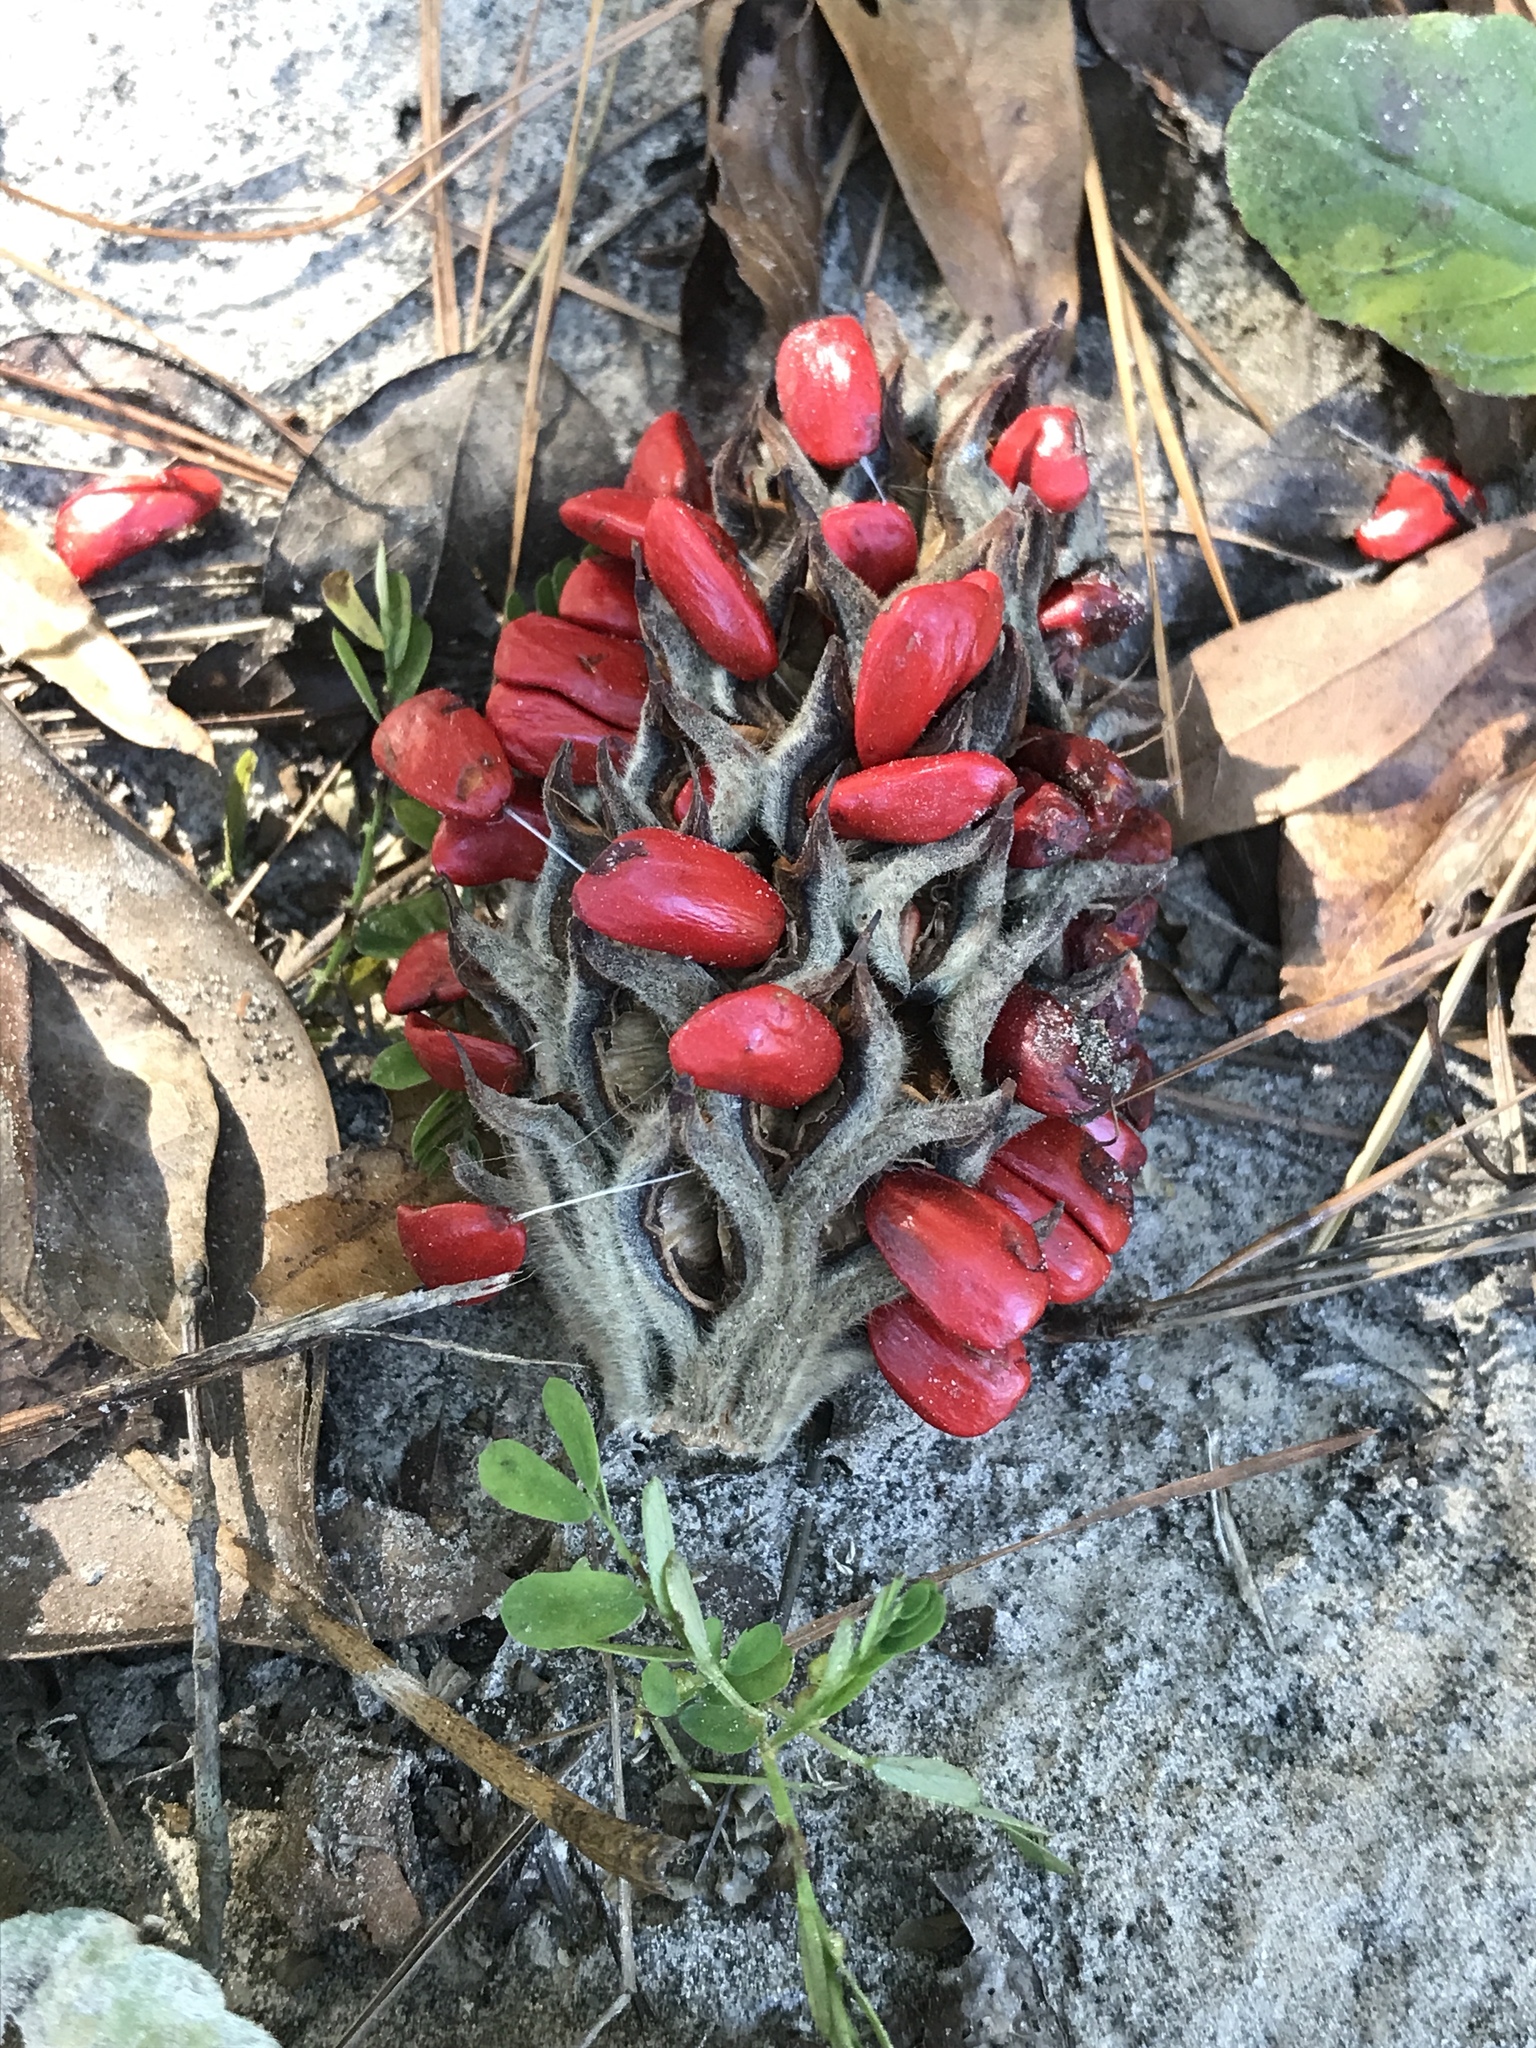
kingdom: Plantae
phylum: Tracheophyta
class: Magnoliopsida
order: Magnoliales
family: Magnoliaceae
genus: Magnolia
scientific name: Magnolia grandiflora
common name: Southern magnolia
